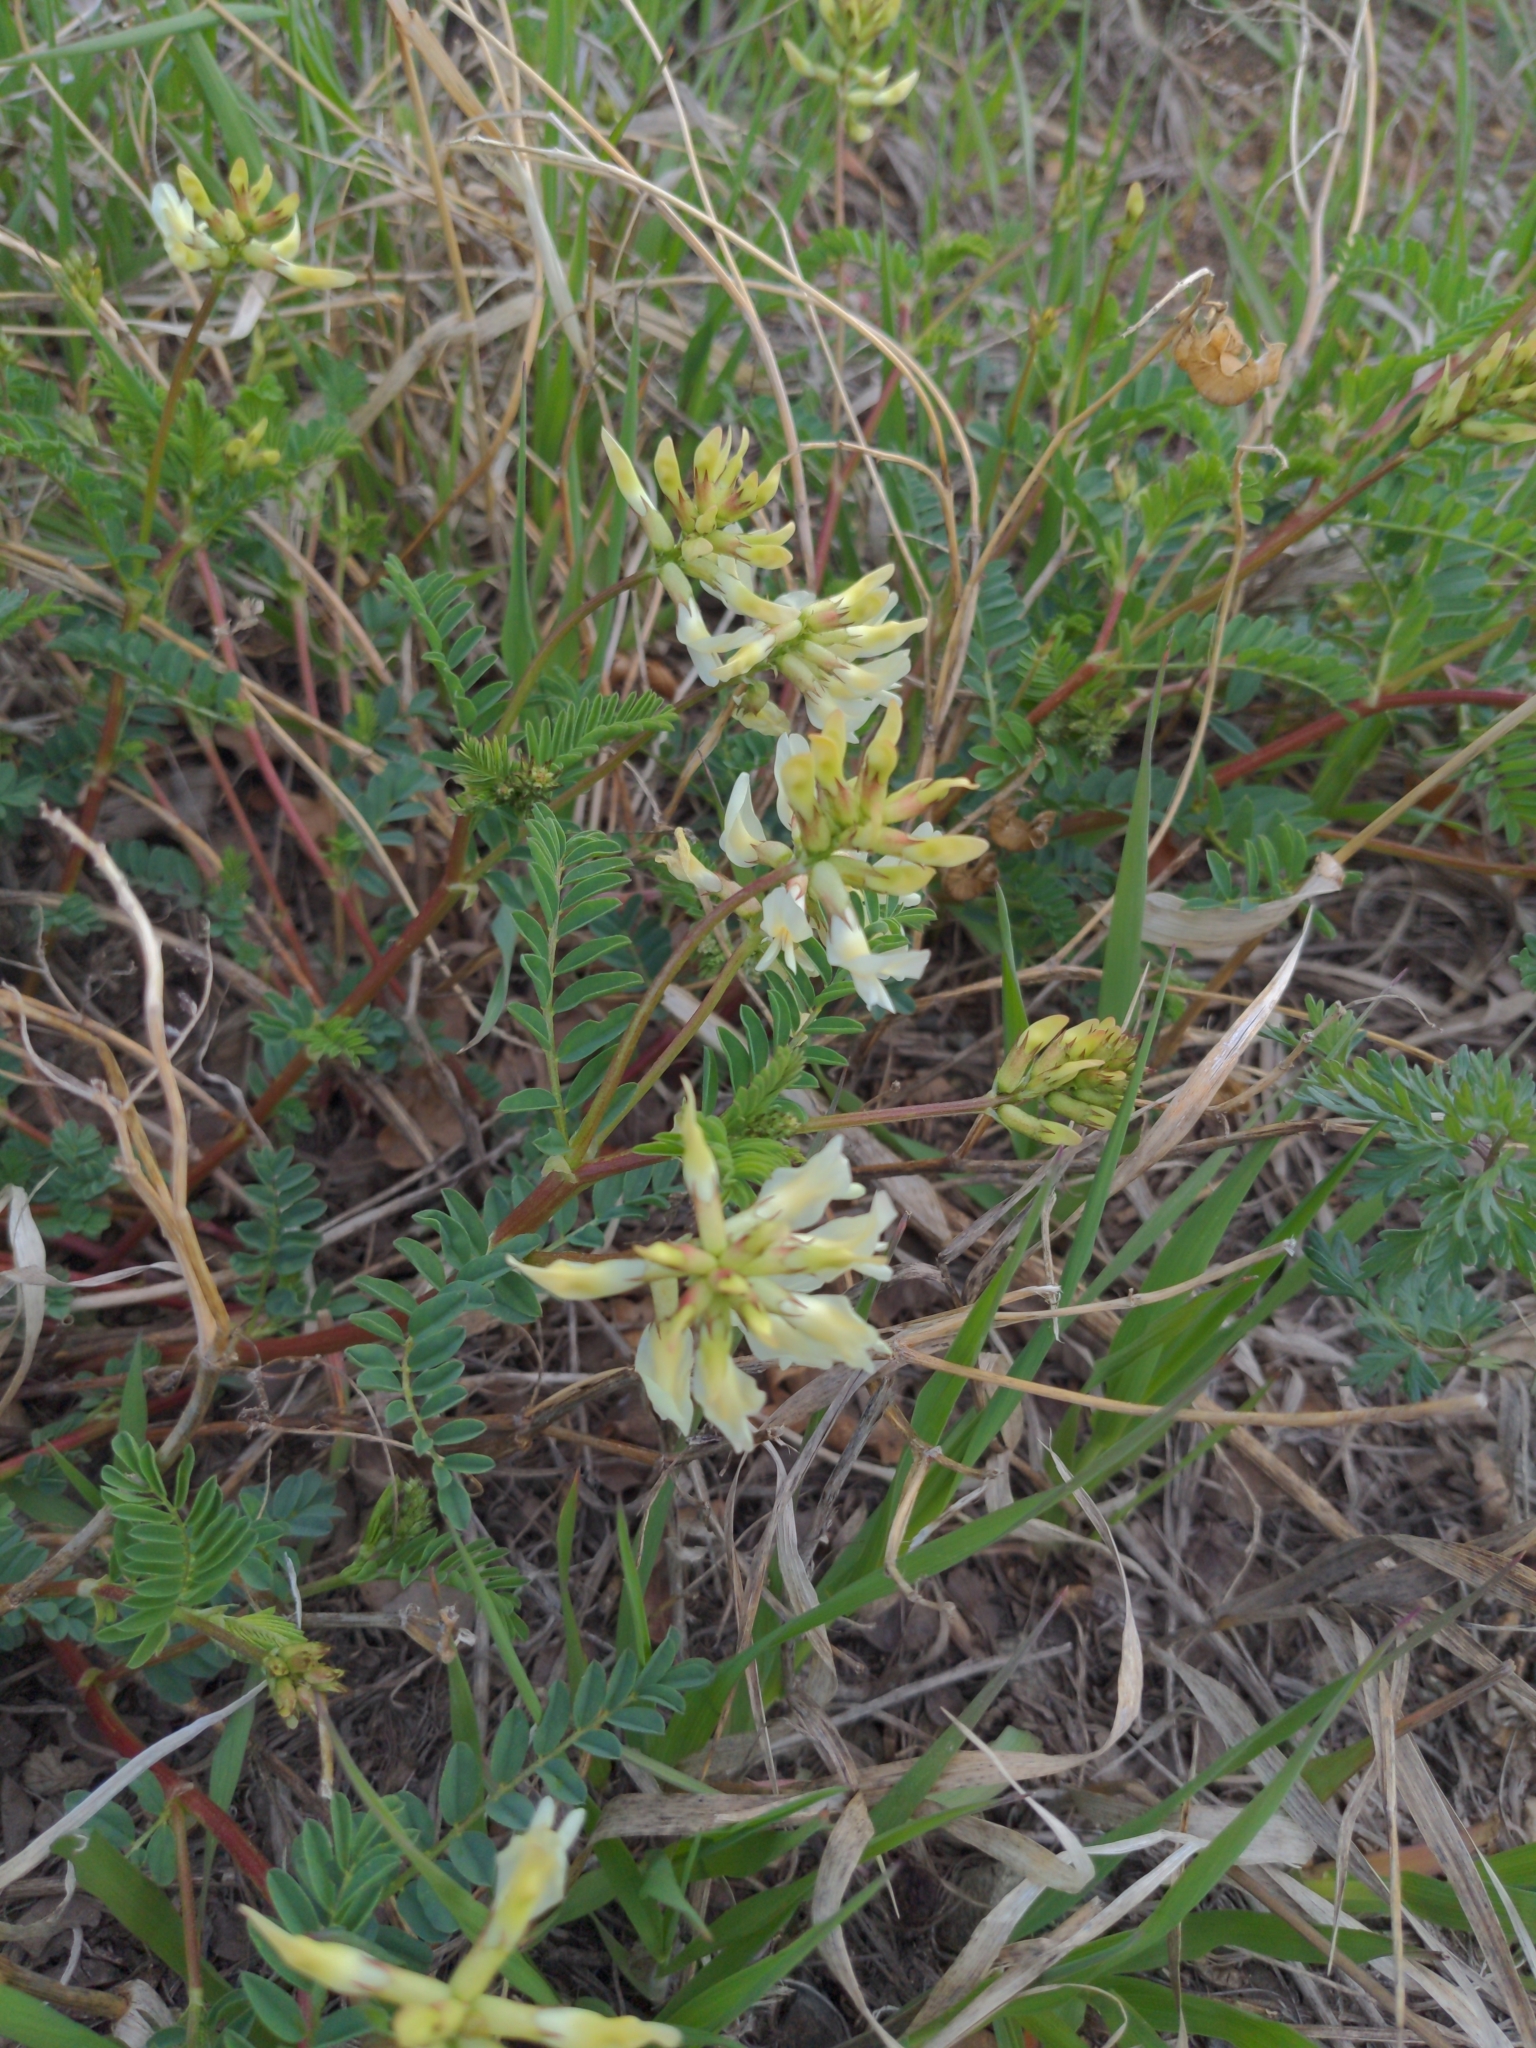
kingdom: Plantae
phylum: Tracheophyta
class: Magnoliopsida
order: Fabales
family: Fabaceae
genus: Astragalus
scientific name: Astragalus scopulorum
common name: Rocky mountain milk-vetch
